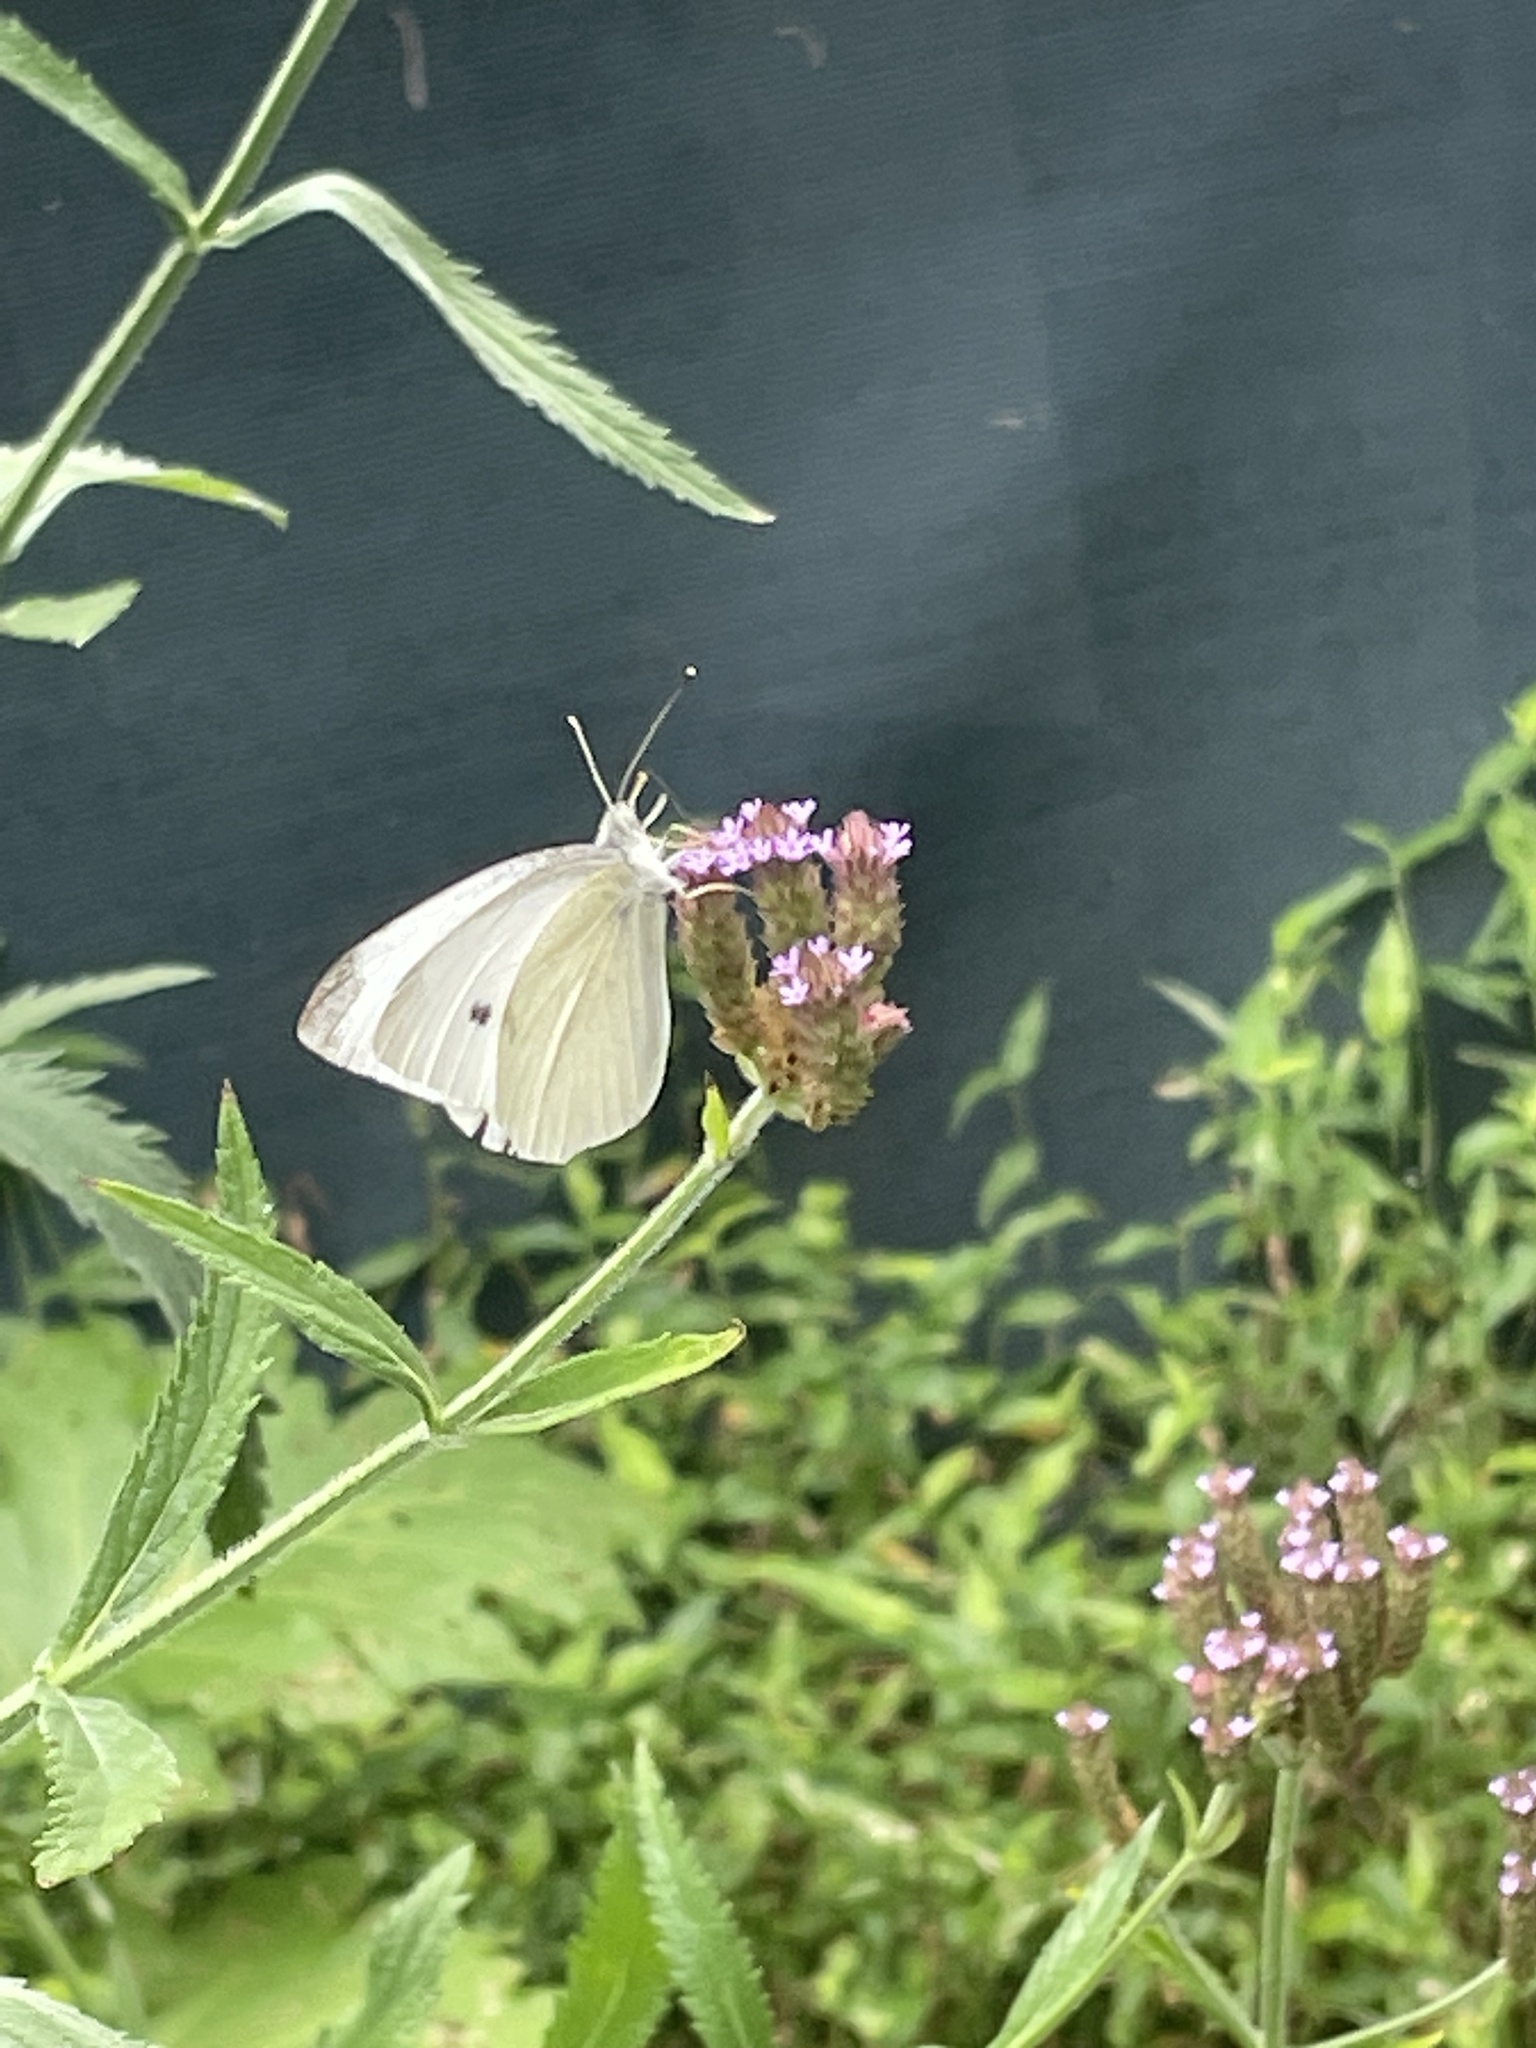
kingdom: Animalia
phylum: Arthropoda
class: Insecta
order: Lepidoptera
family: Pieridae
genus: Pieris
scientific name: Pieris rapae
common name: Small white
